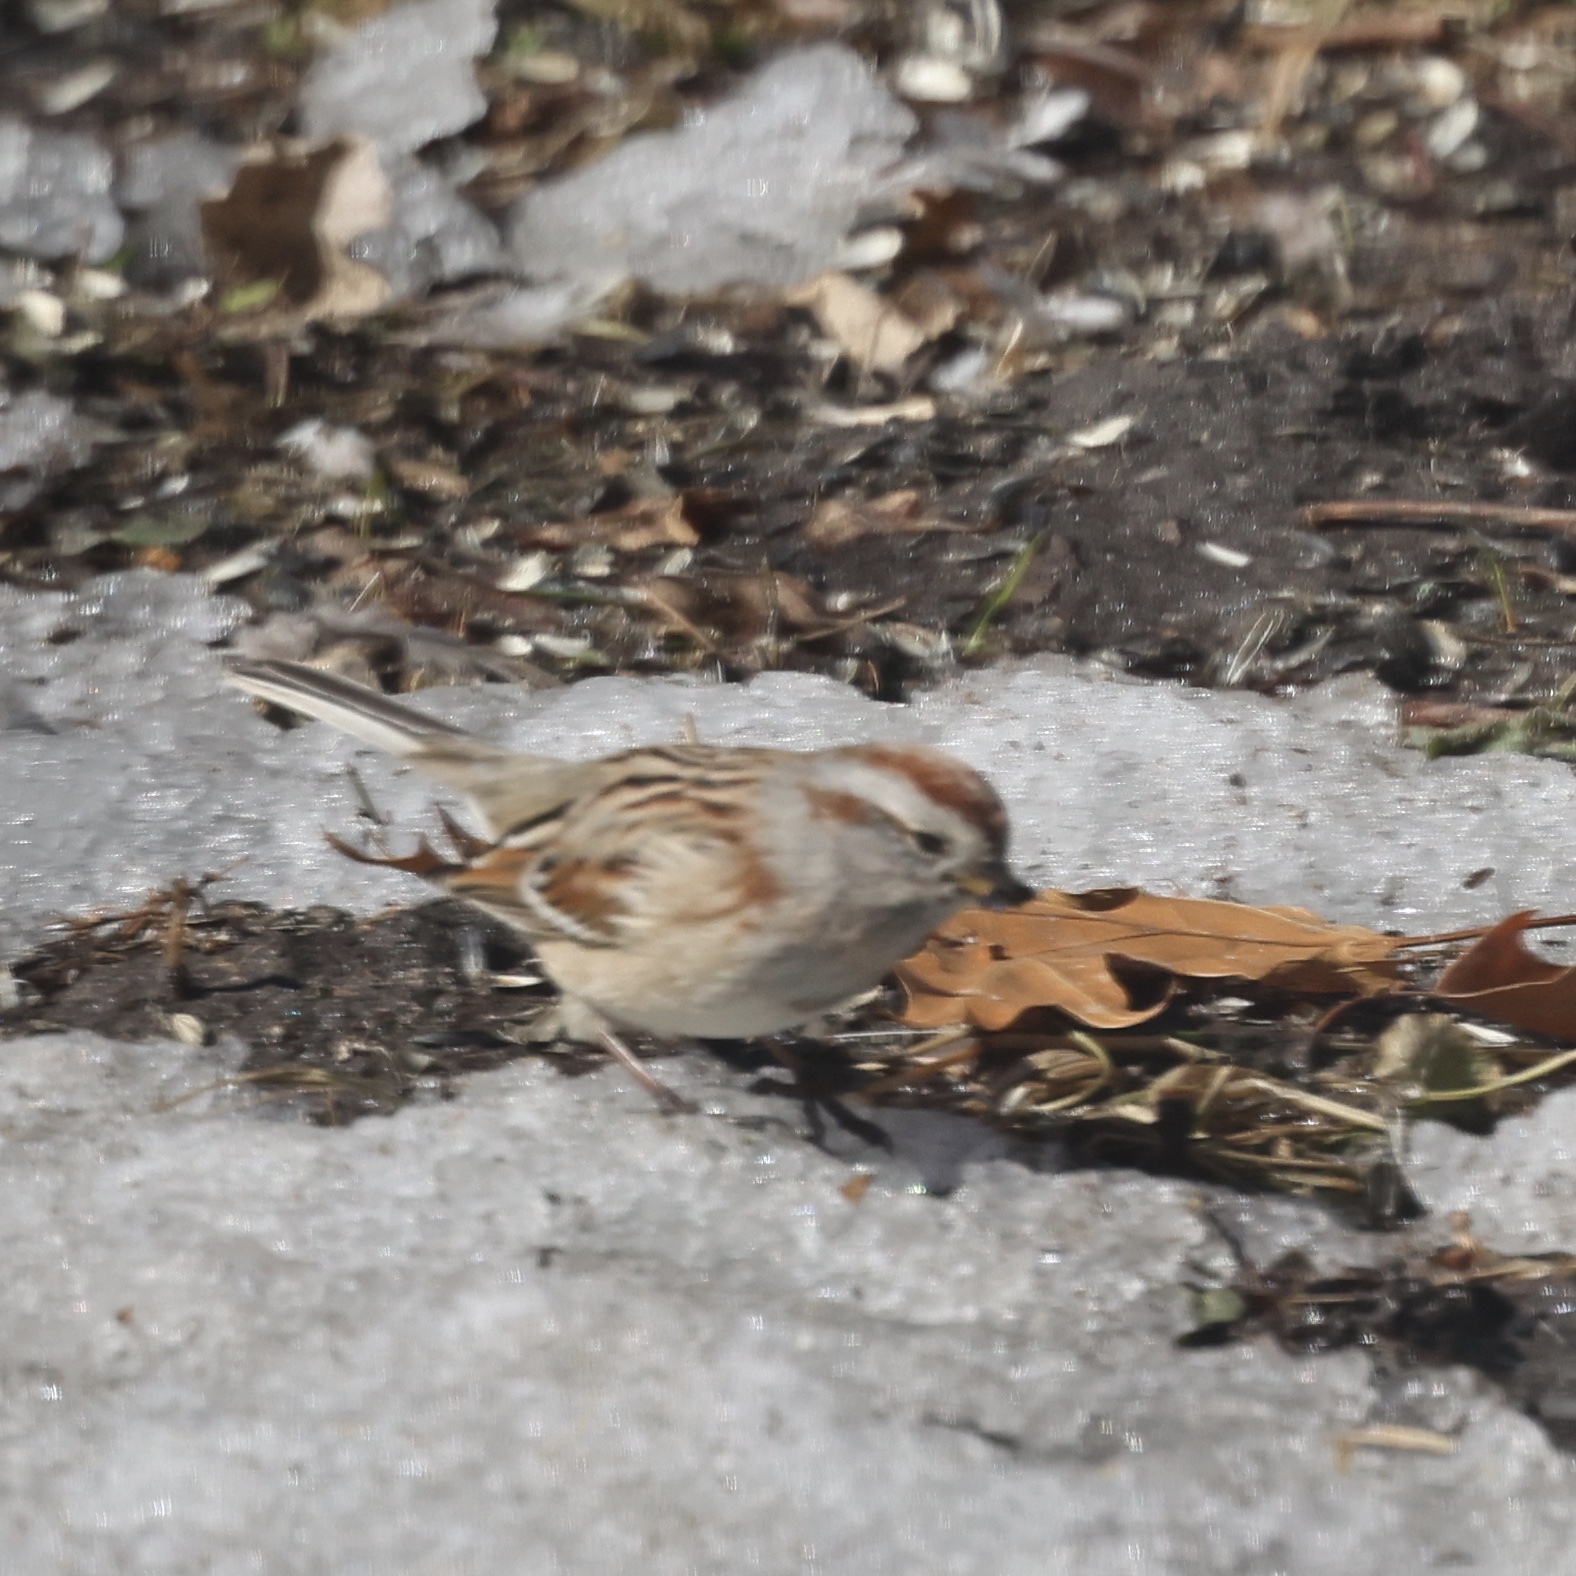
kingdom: Animalia
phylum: Chordata
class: Aves
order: Passeriformes
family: Passerellidae
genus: Spizelloides
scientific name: Spizelloides arborea
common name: American tree sparrow
